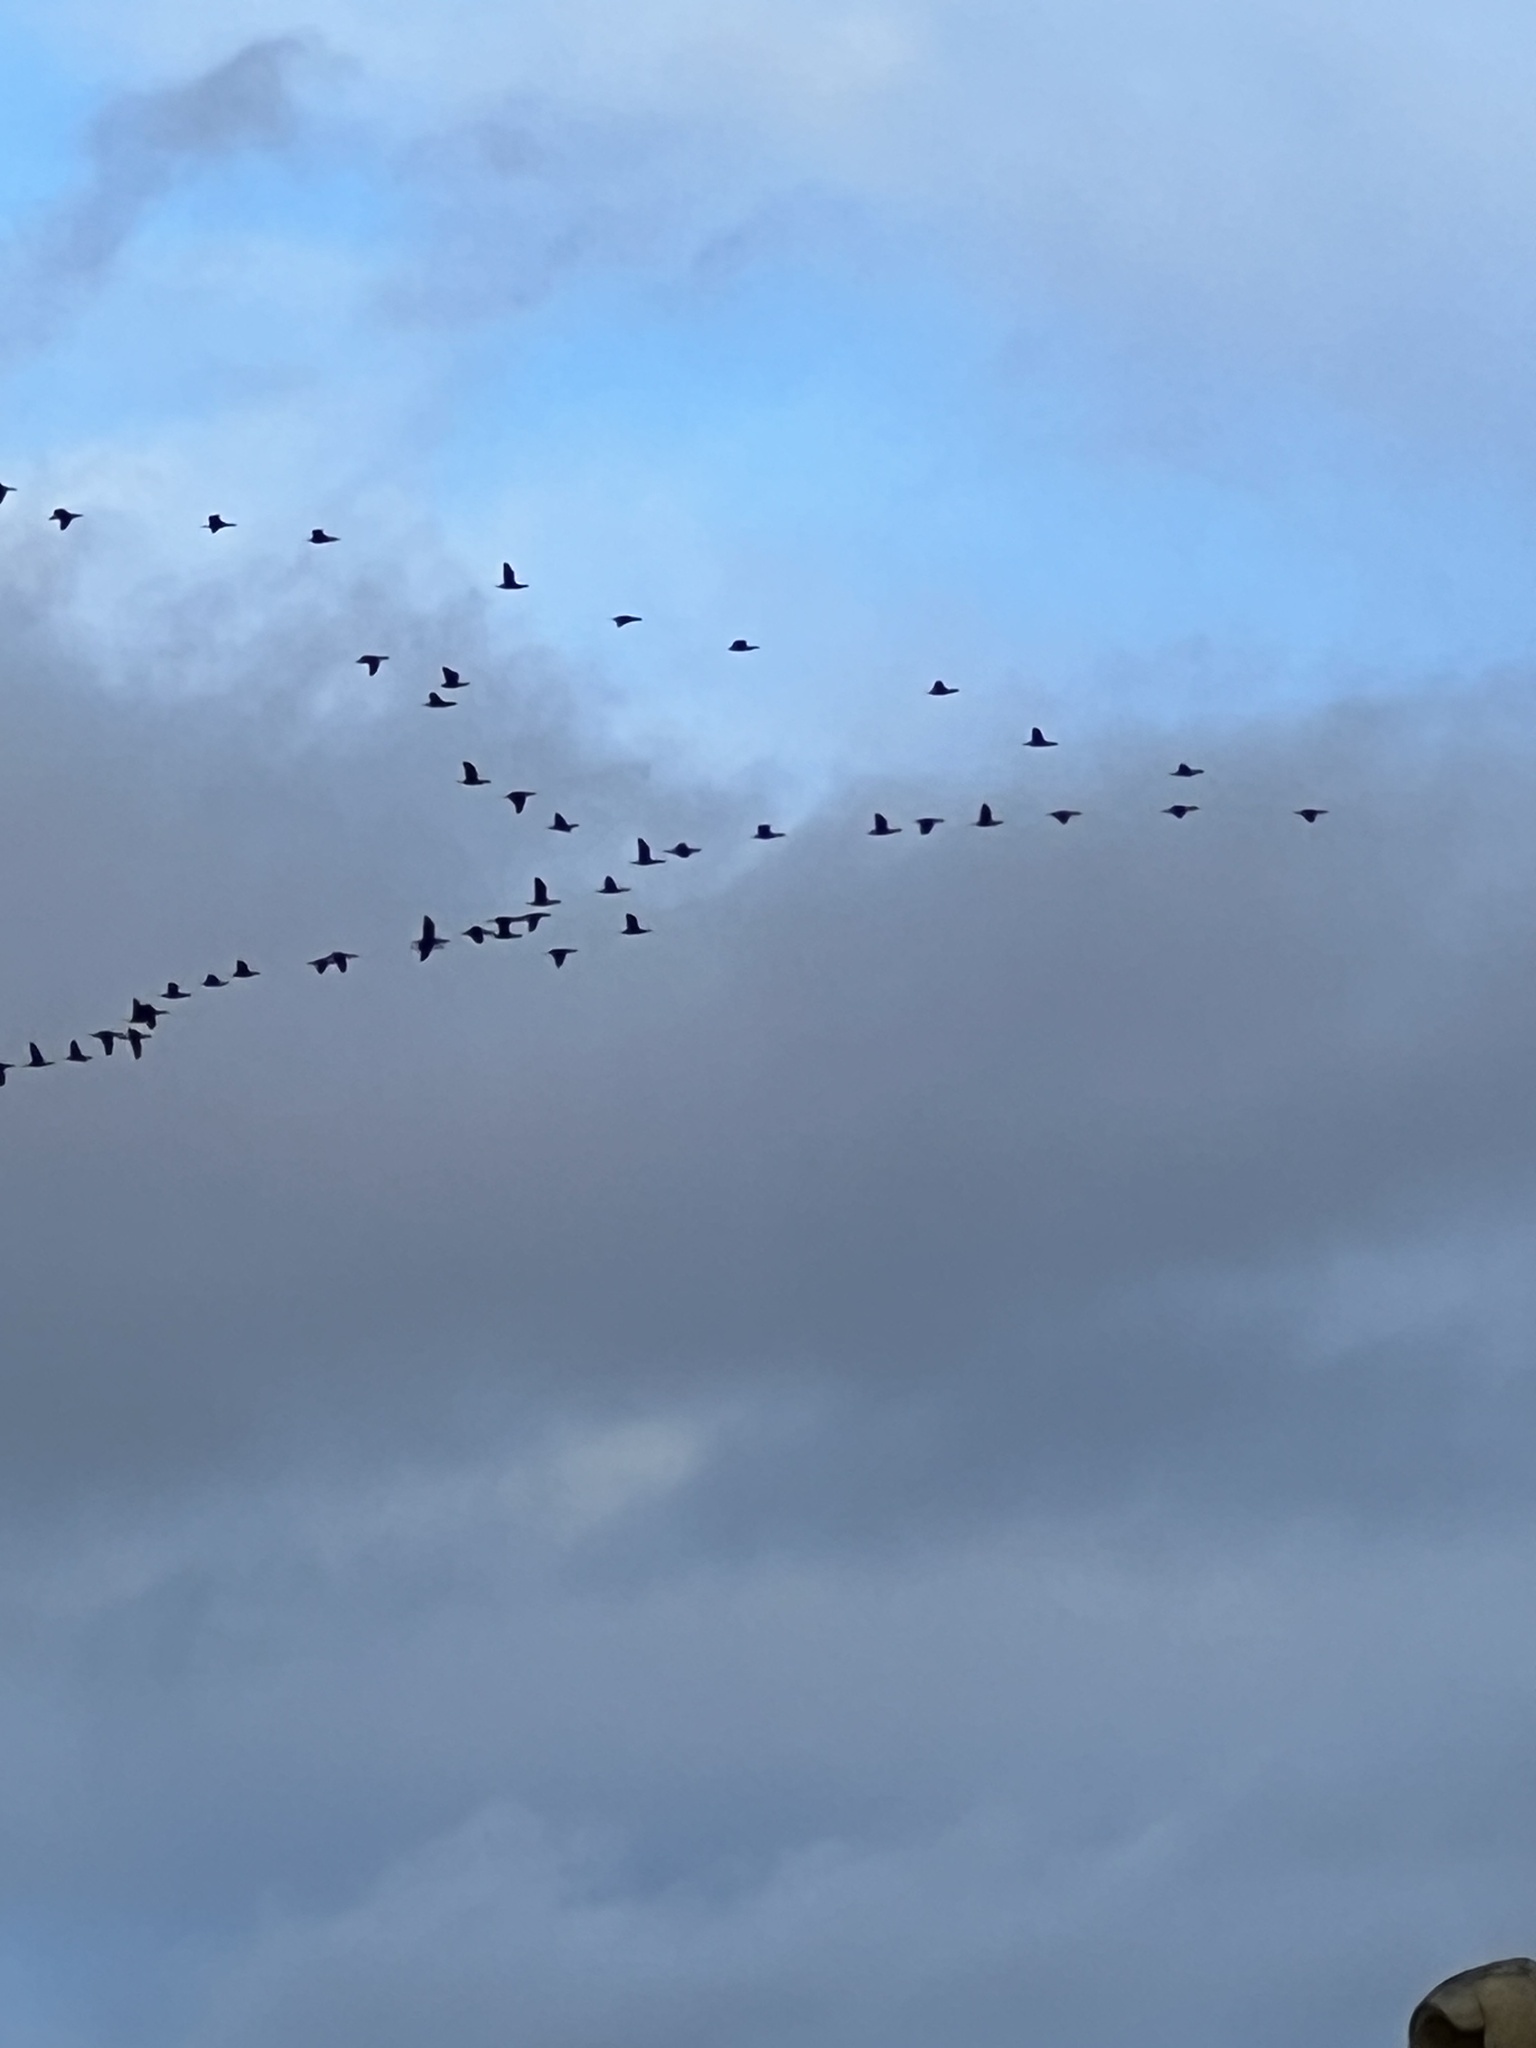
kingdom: Animalia
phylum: Chordata
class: Aves
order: Suliformes
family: Phalacrocoracidae
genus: Phalacrocorax
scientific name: Phalacrocorax carbo
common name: Great cormorant
